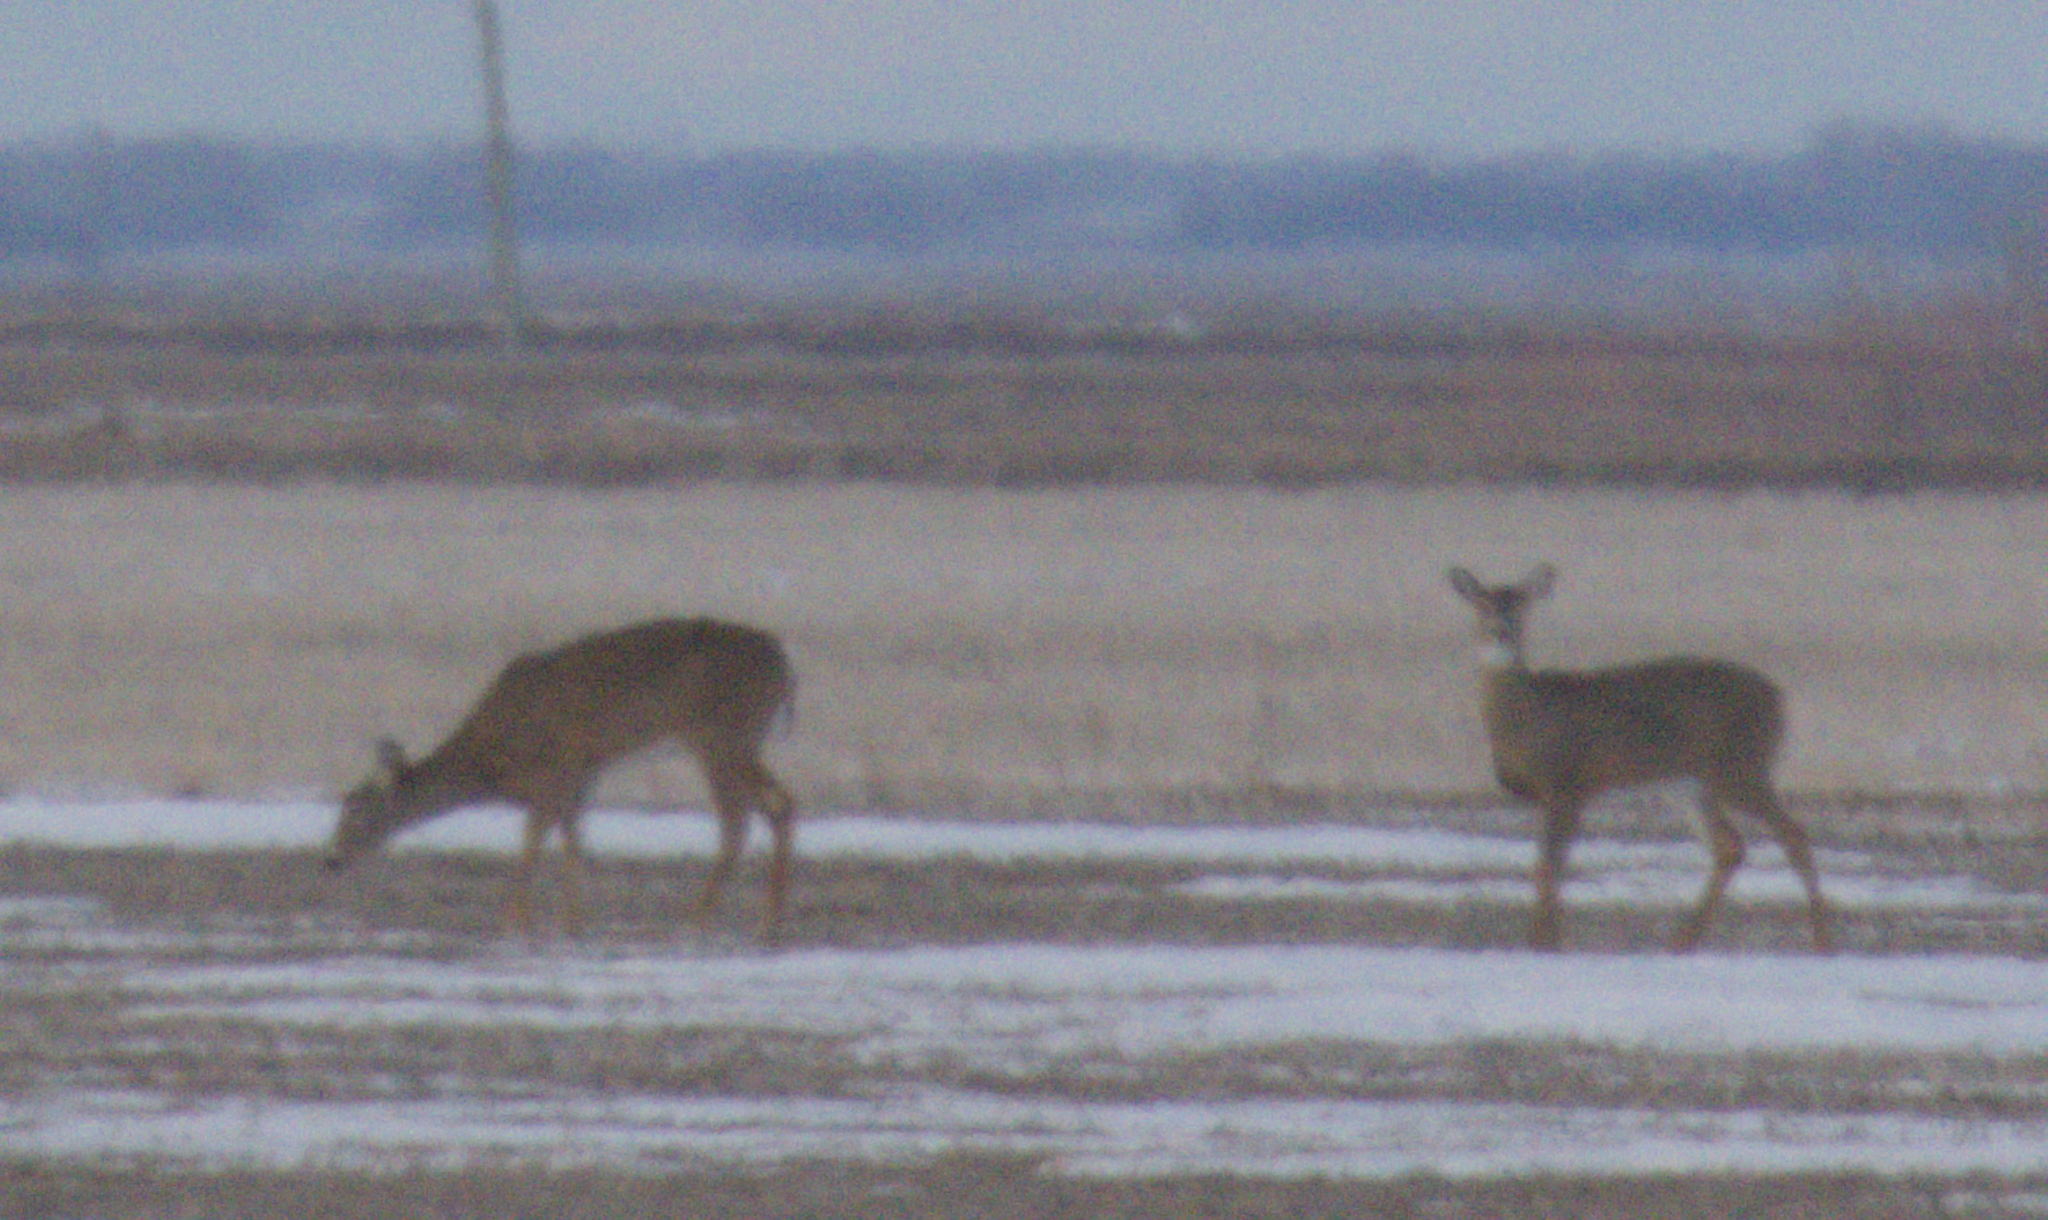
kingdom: Animalia
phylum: Chordata
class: Mammalia
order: Artiodactyla
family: Cervidae
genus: Odocoileus
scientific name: Odocoileus virginianus
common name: White-tailed deer
